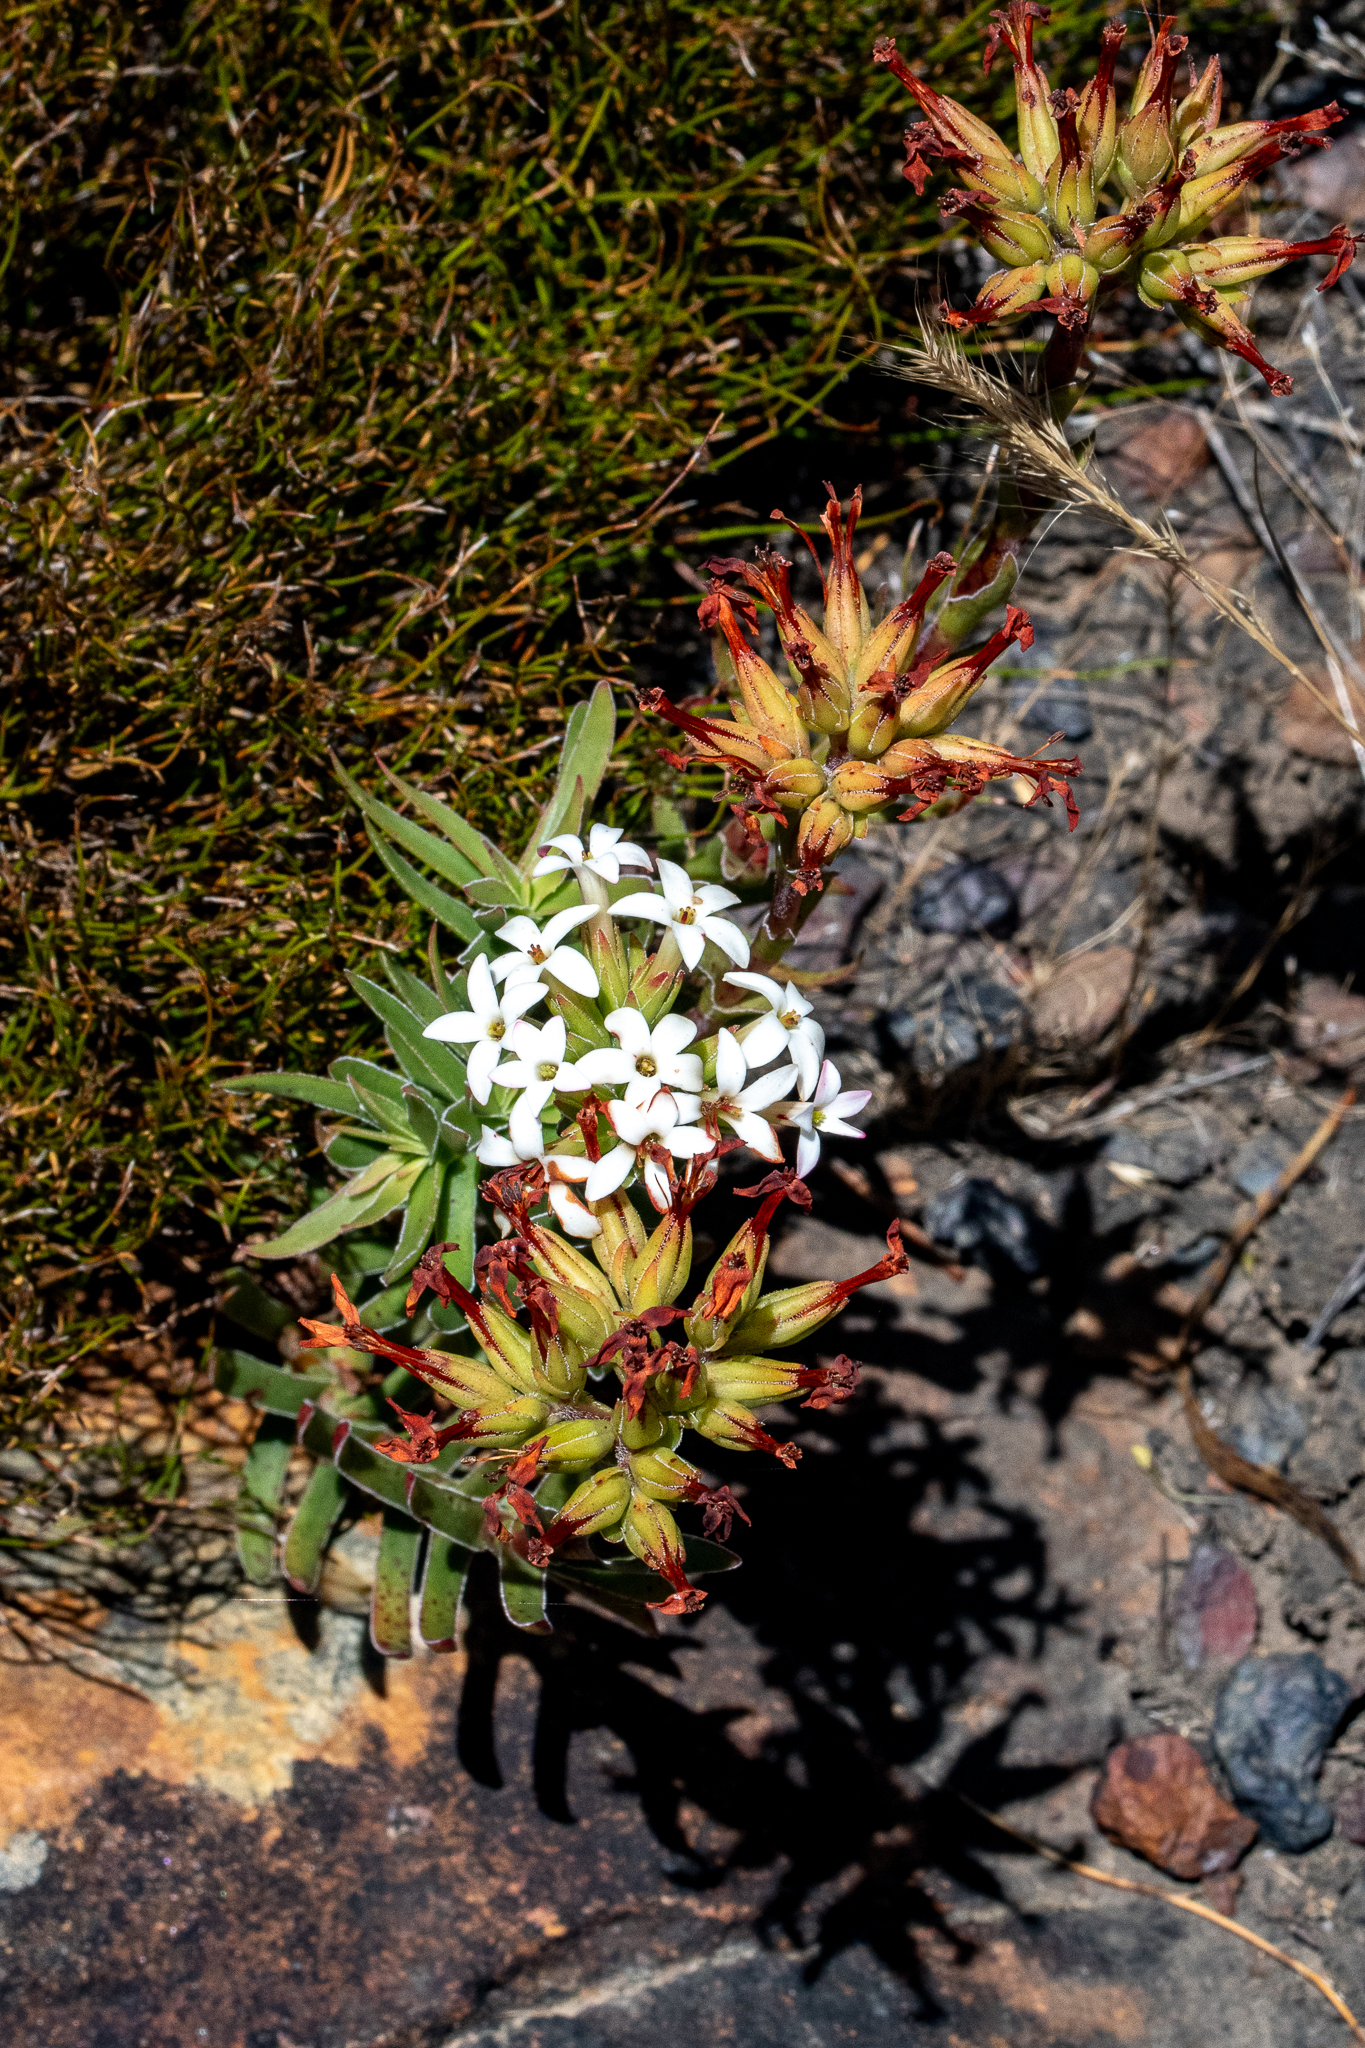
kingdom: Plantae
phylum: Tracheophyta
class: Magnoliopsida
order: Saxifragales
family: Crassulaceae
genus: Crassula
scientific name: Crassula fascicularis
